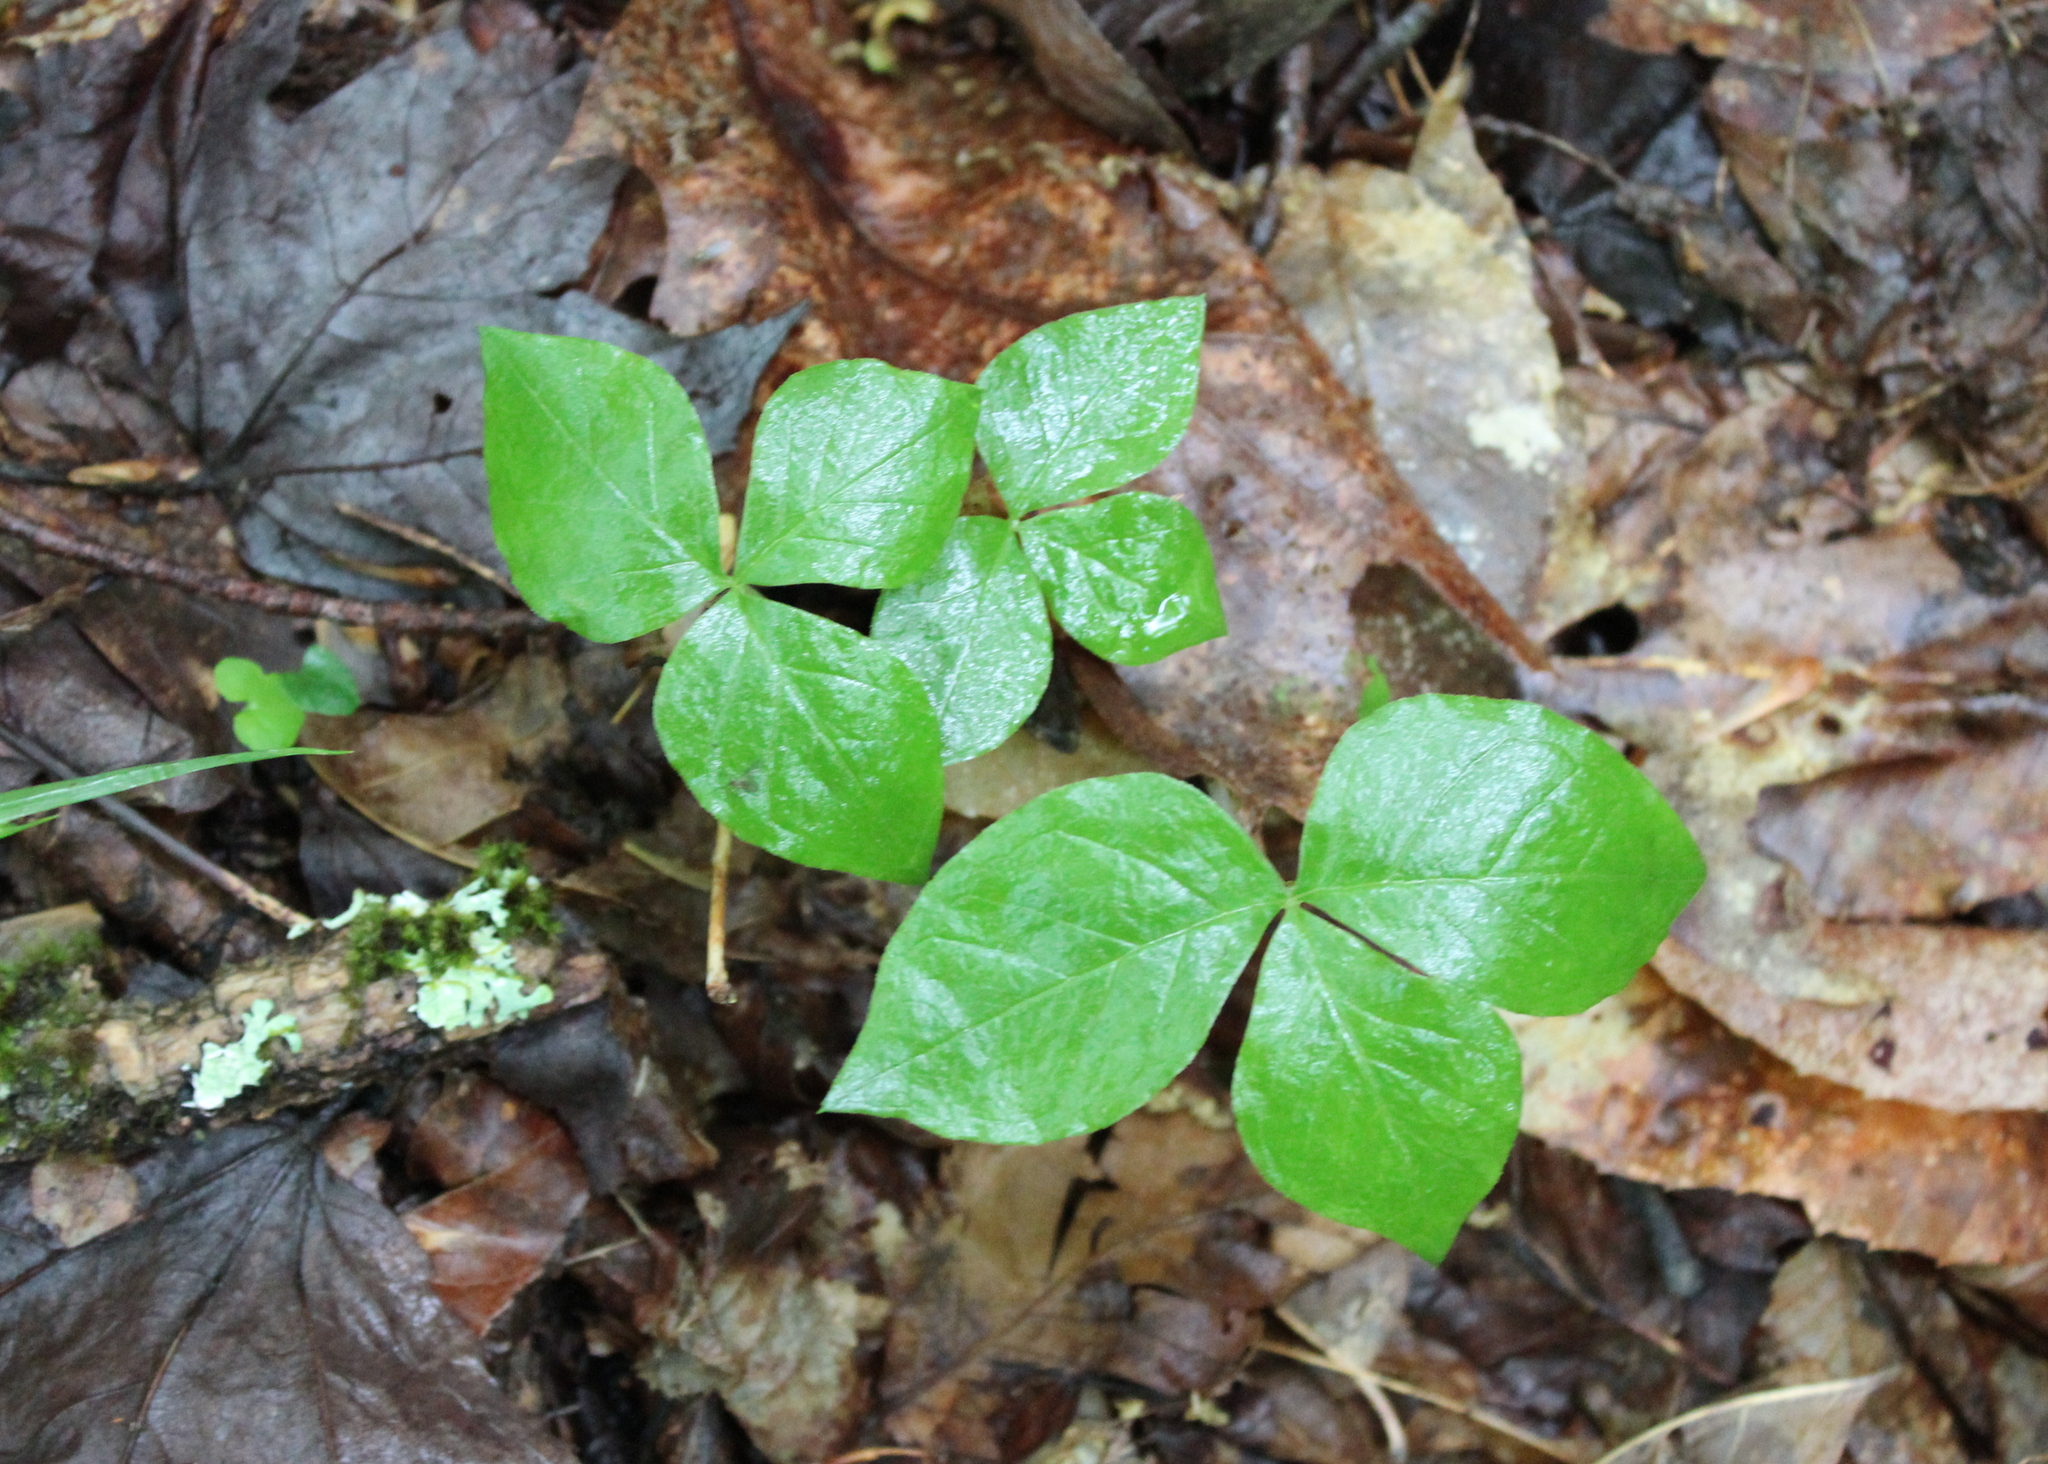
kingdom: Plantae
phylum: Tracheophyta
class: Liliopsida
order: Alismatales
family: Araceae
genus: Arisaema
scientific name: Arisaema triphyllum
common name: Jack-in-the-pulpit
